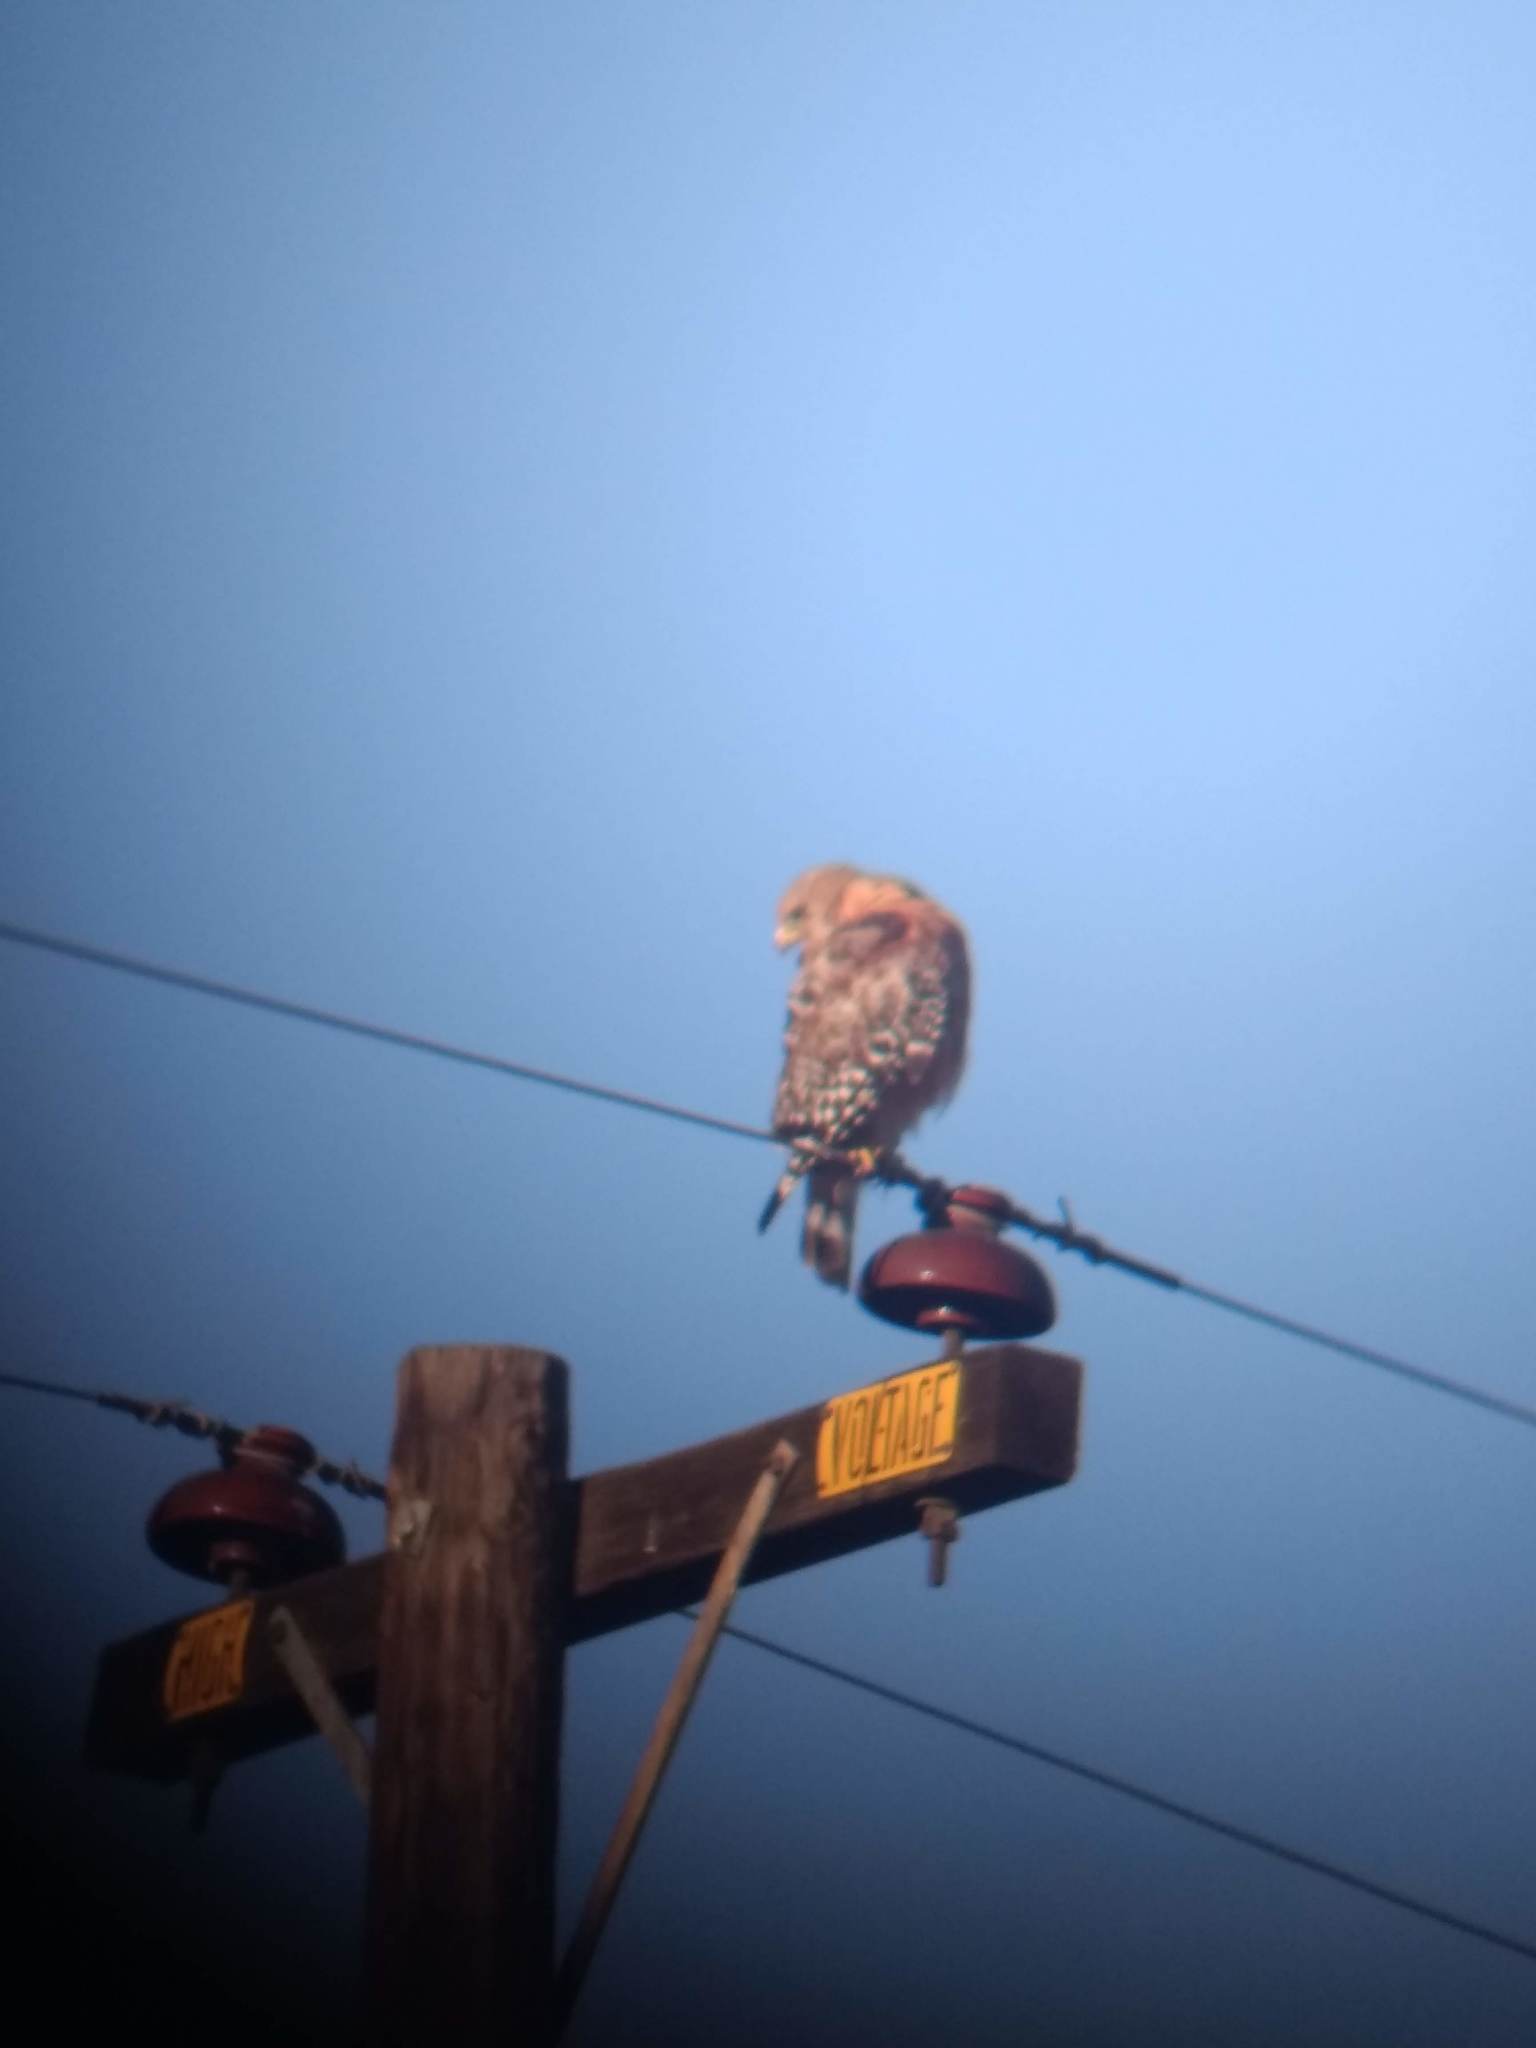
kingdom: Animalia
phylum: Chordata
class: Aves
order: Accipitriformes
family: Accipitridae
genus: Buteo
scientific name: Buteo lineatus
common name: Red-shouldered hawk
